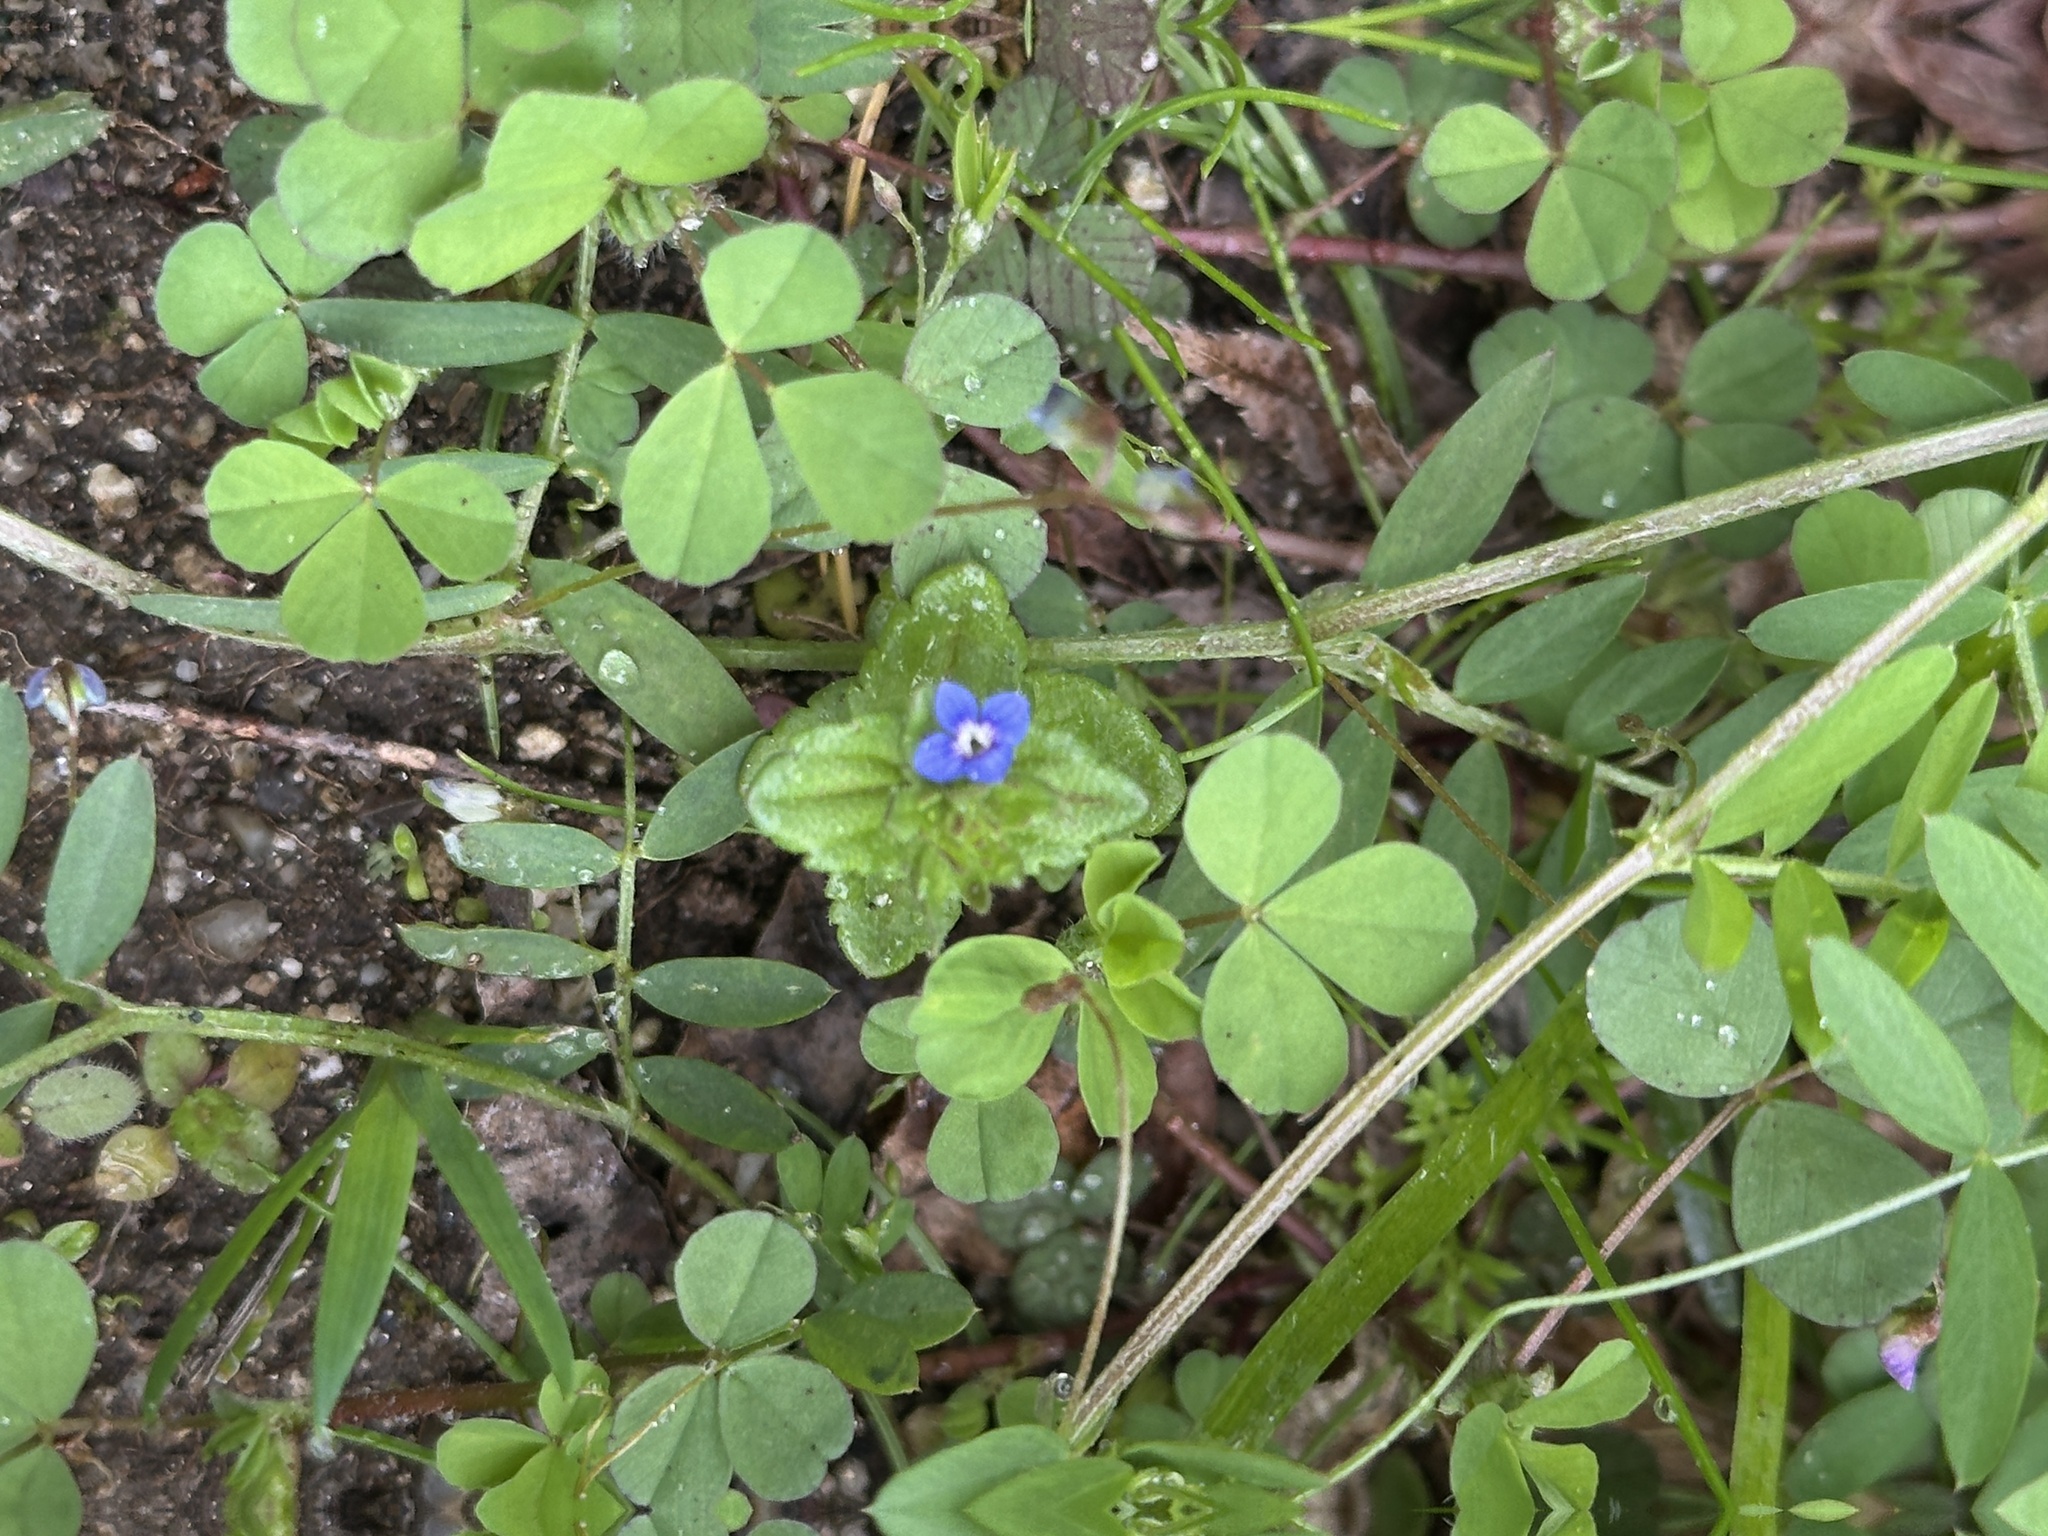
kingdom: Plantae
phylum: Tracheophyta
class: Magnoliopsida
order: Lamiales
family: Plantaginaceae
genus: Veronica
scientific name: Veronica arvensis
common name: Corn speedwell
